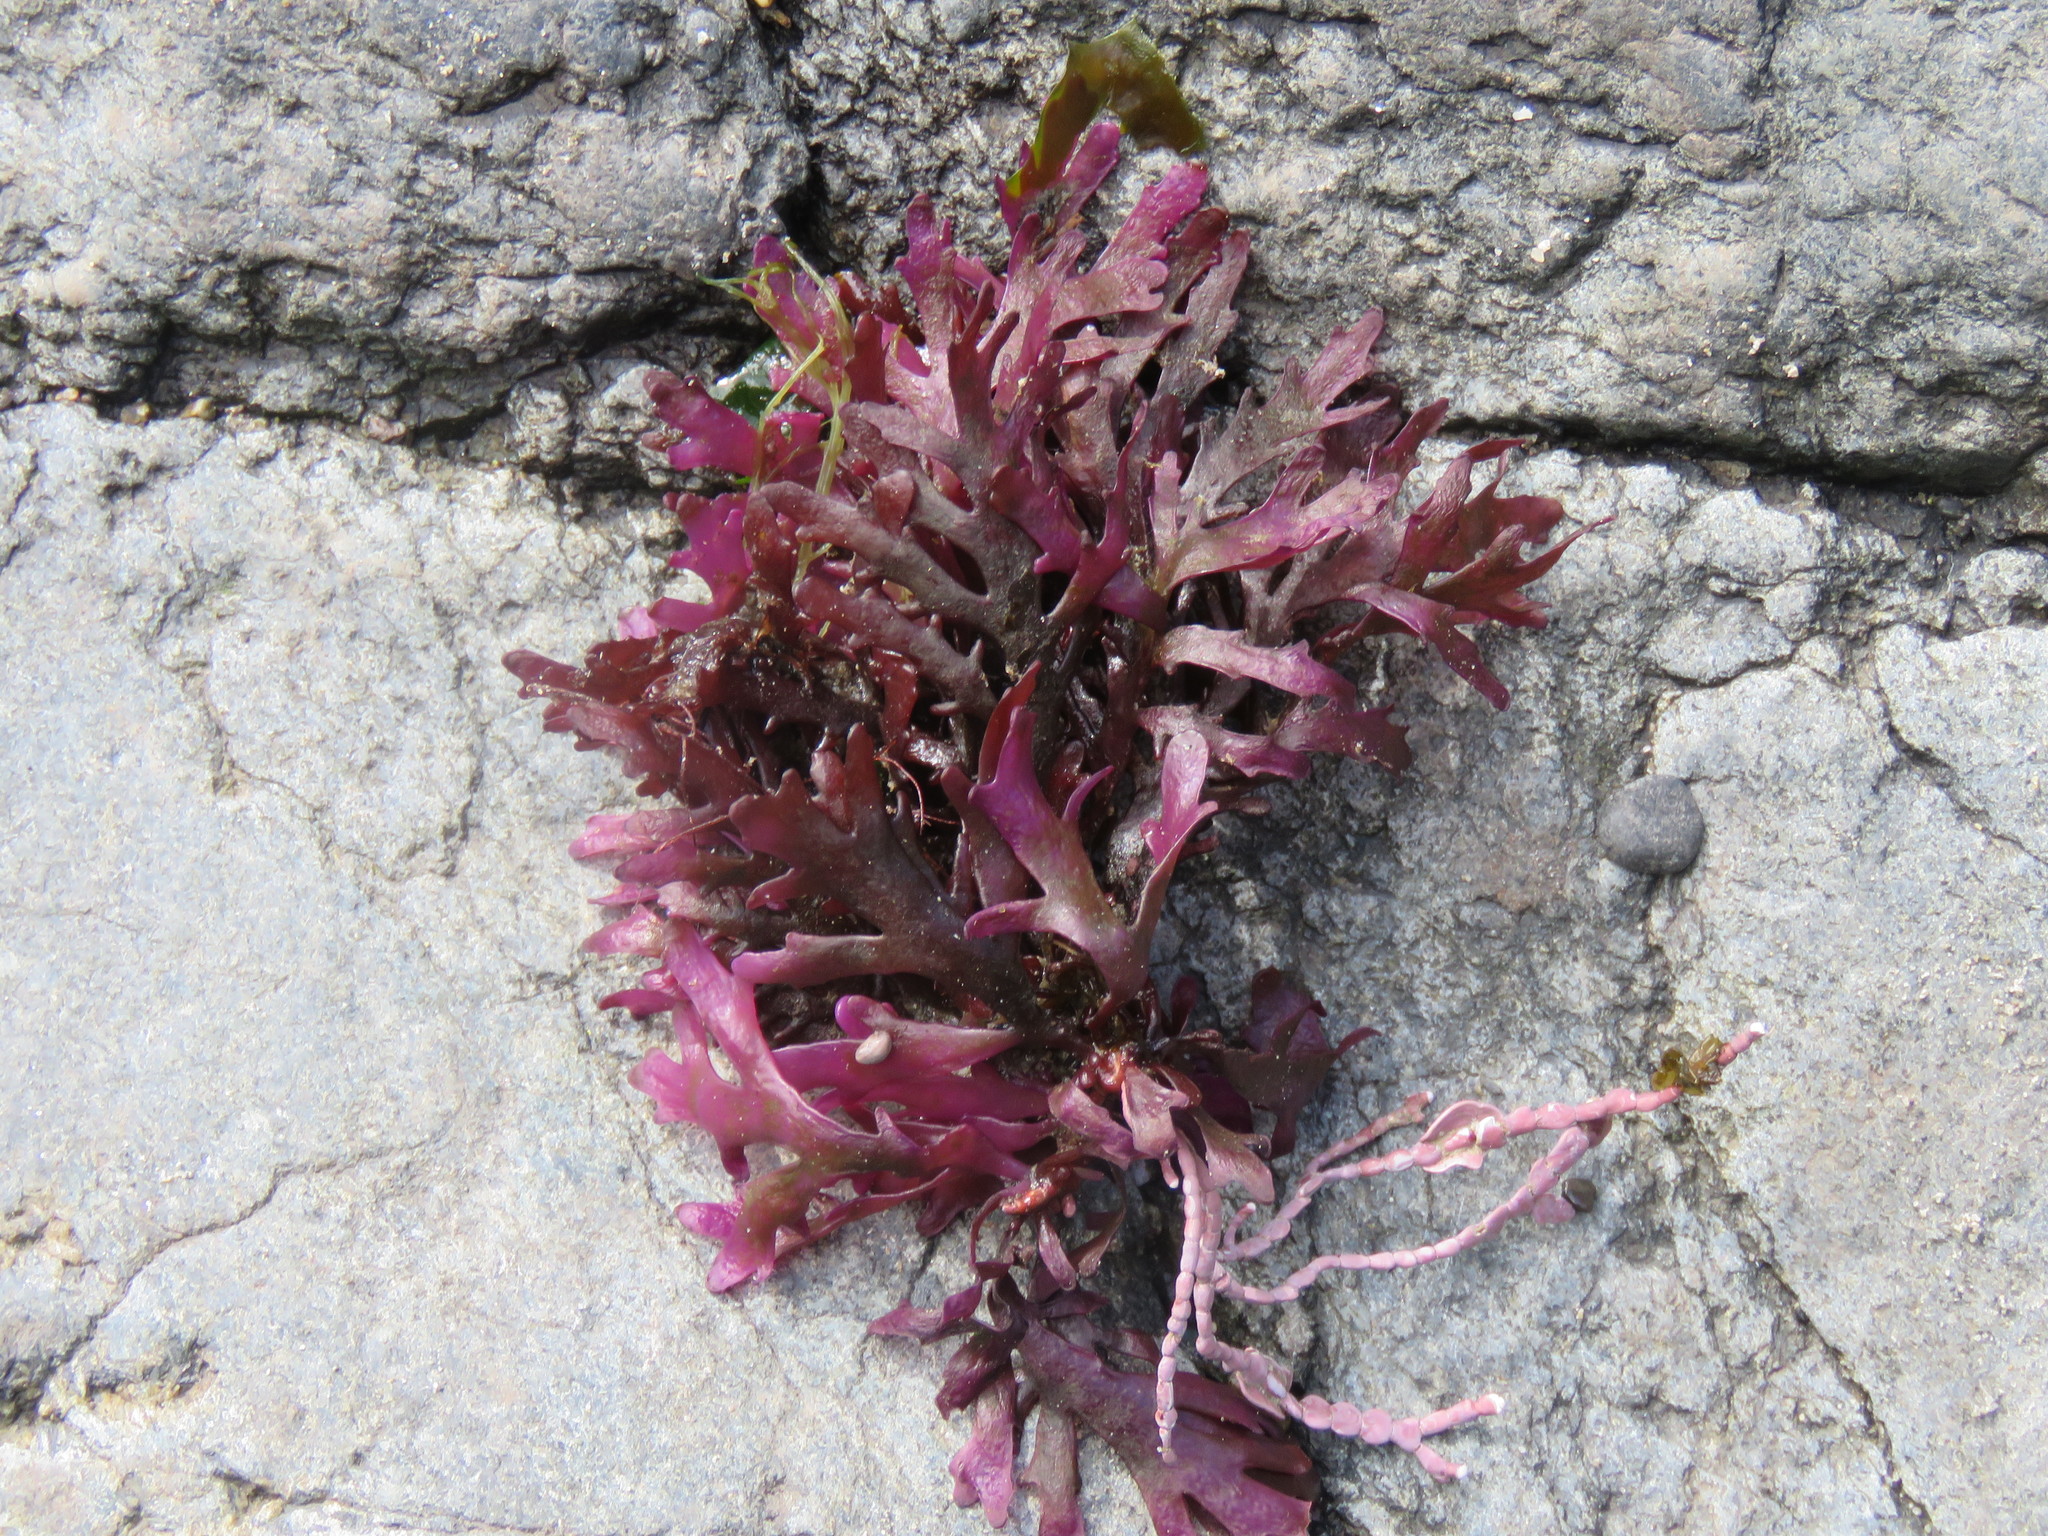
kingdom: Plantae
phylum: Rhodophyta
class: Florideophyceae
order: Ceramiales
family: Rhodomelaceae
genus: Osmundea
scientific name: Osmundea spectabilis
